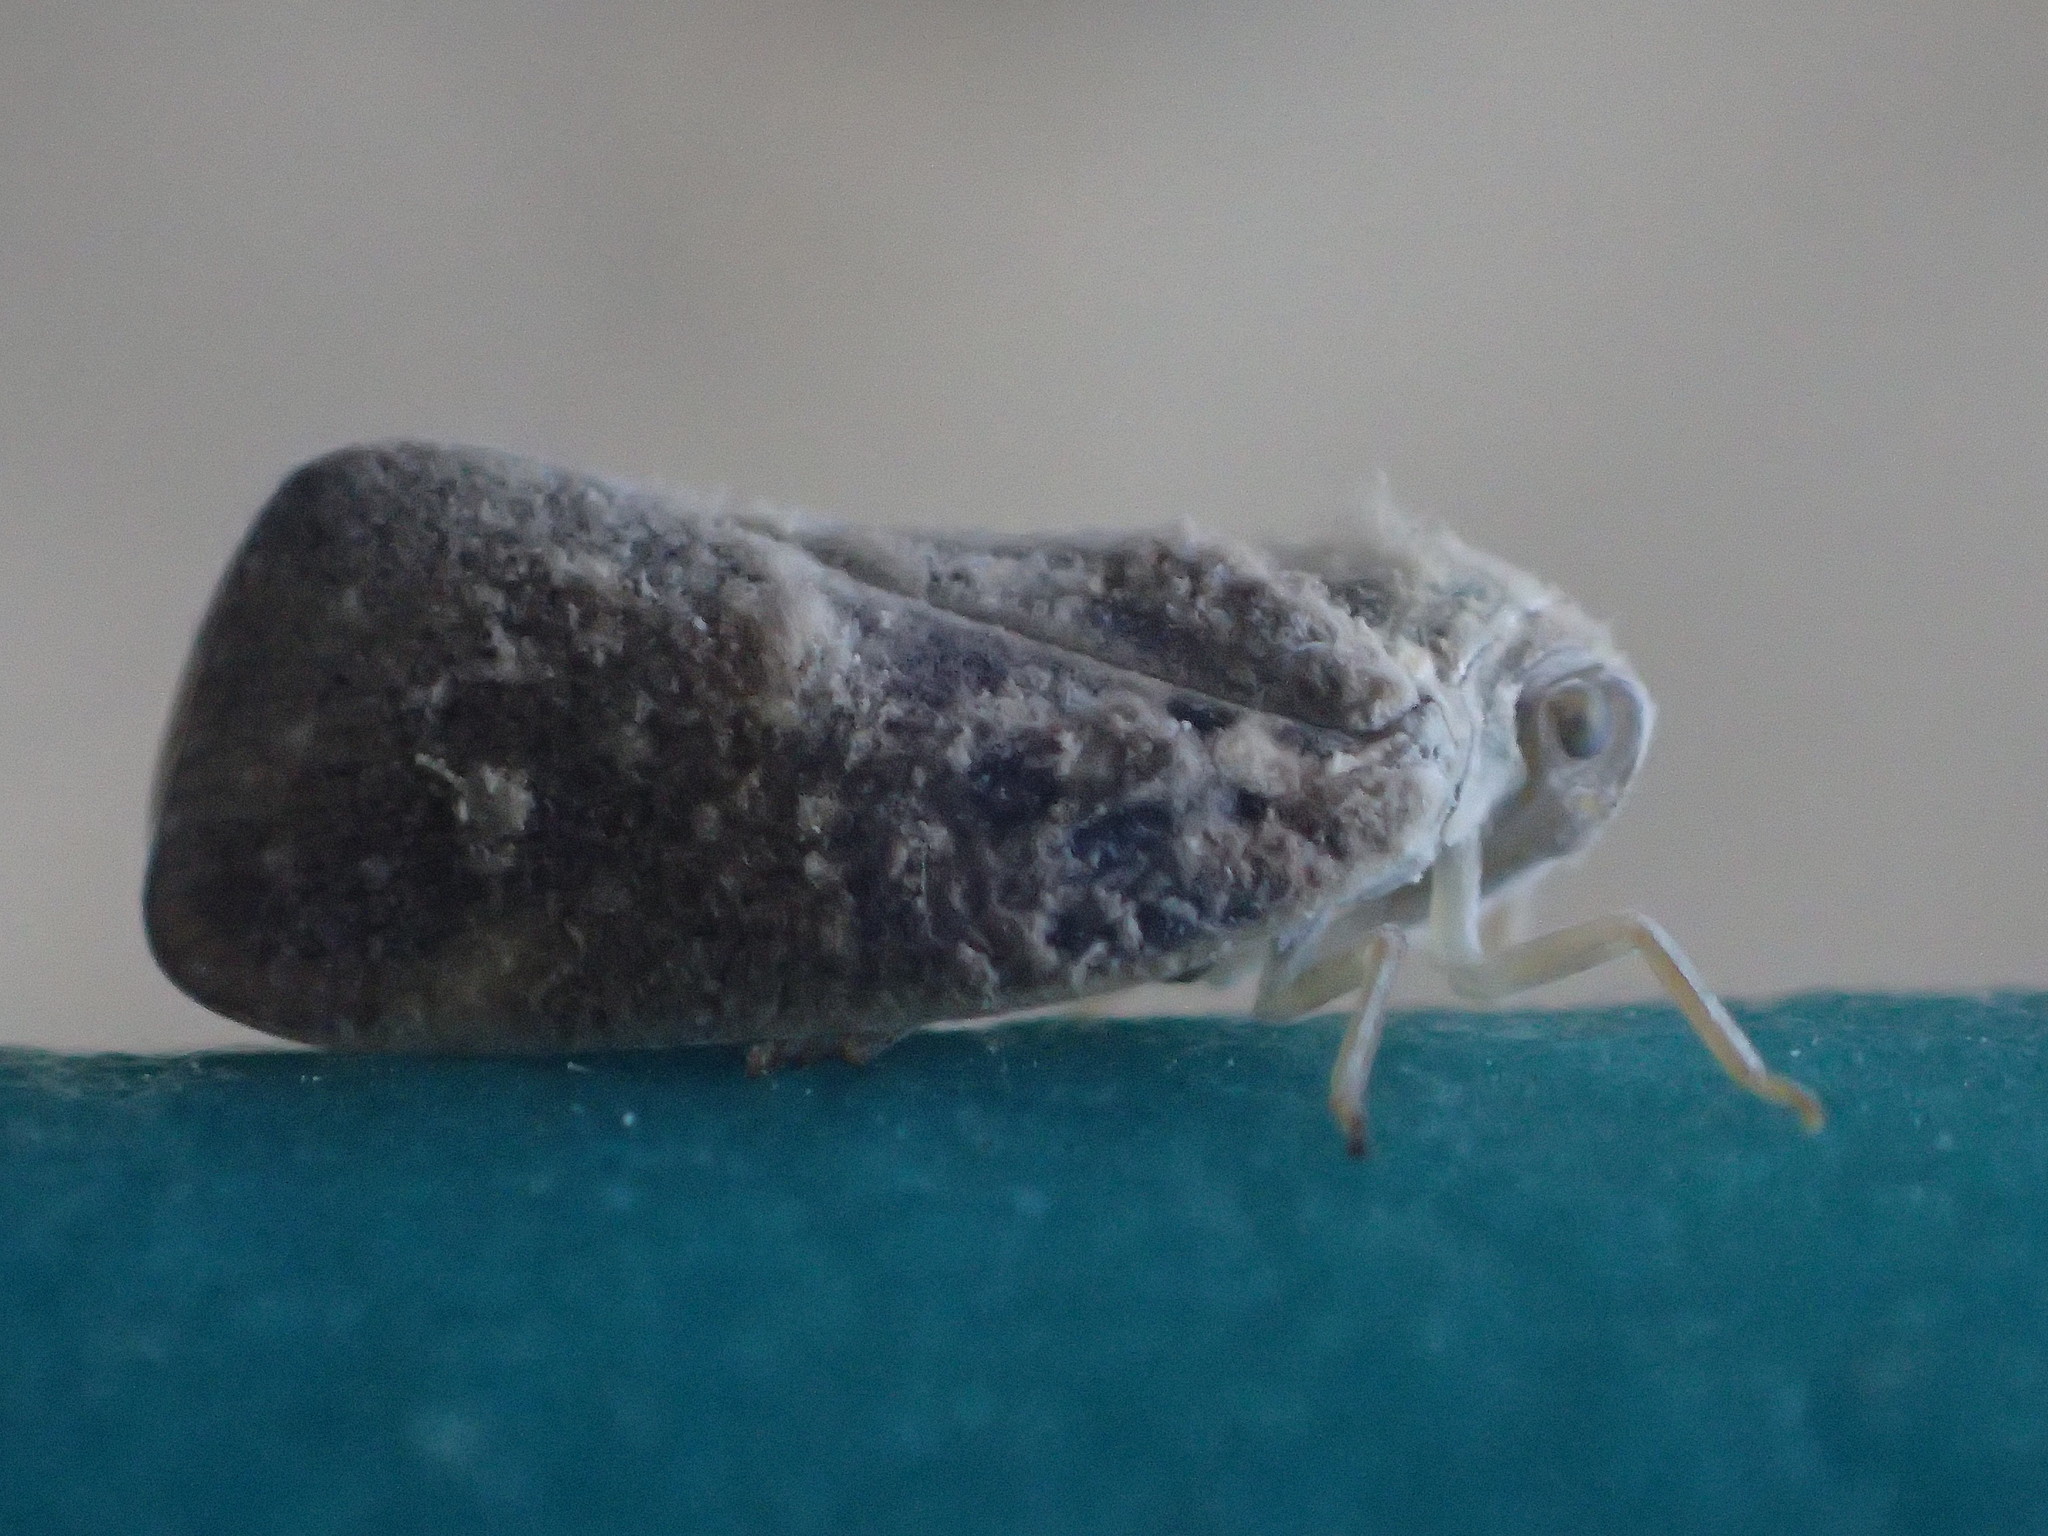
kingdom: Animalia
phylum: Arthropoda
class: Insecta
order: Hemiptera
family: Flatidae
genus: Metcalfa
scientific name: Metcalfa pruinosa
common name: Citrus flatid planthopper
